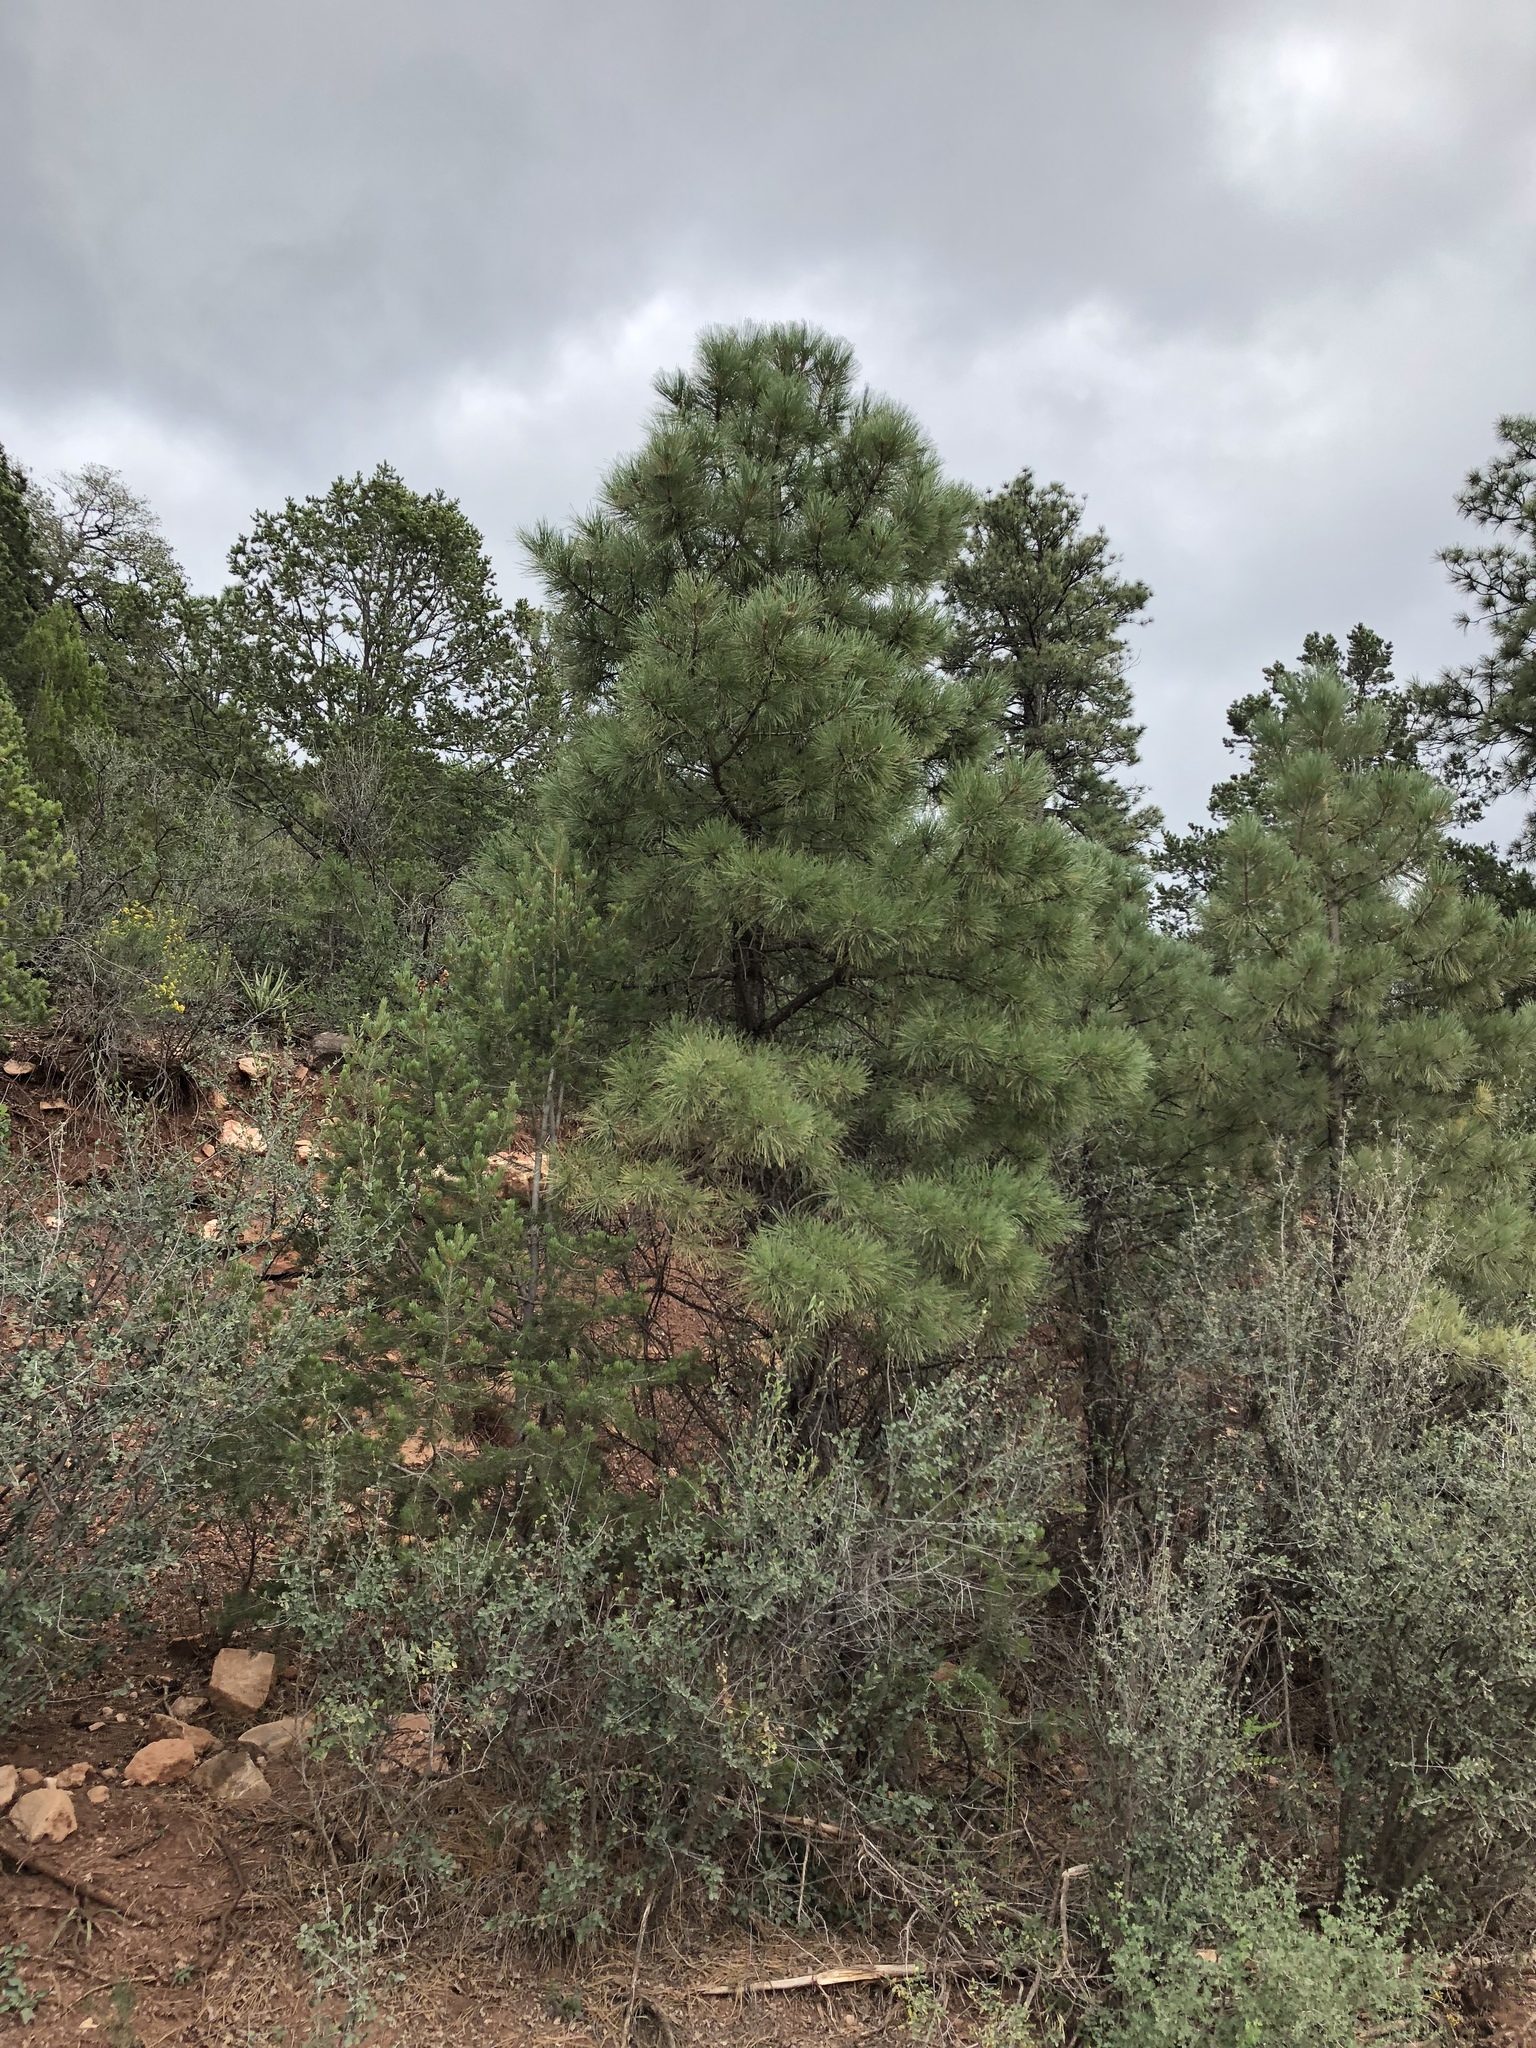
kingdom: Plantae
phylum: Tracheophyta
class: Pinopsida
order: Pinales
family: Pinaceae
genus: Pinus
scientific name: Pinus ponderosa
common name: Western yellow-pine
